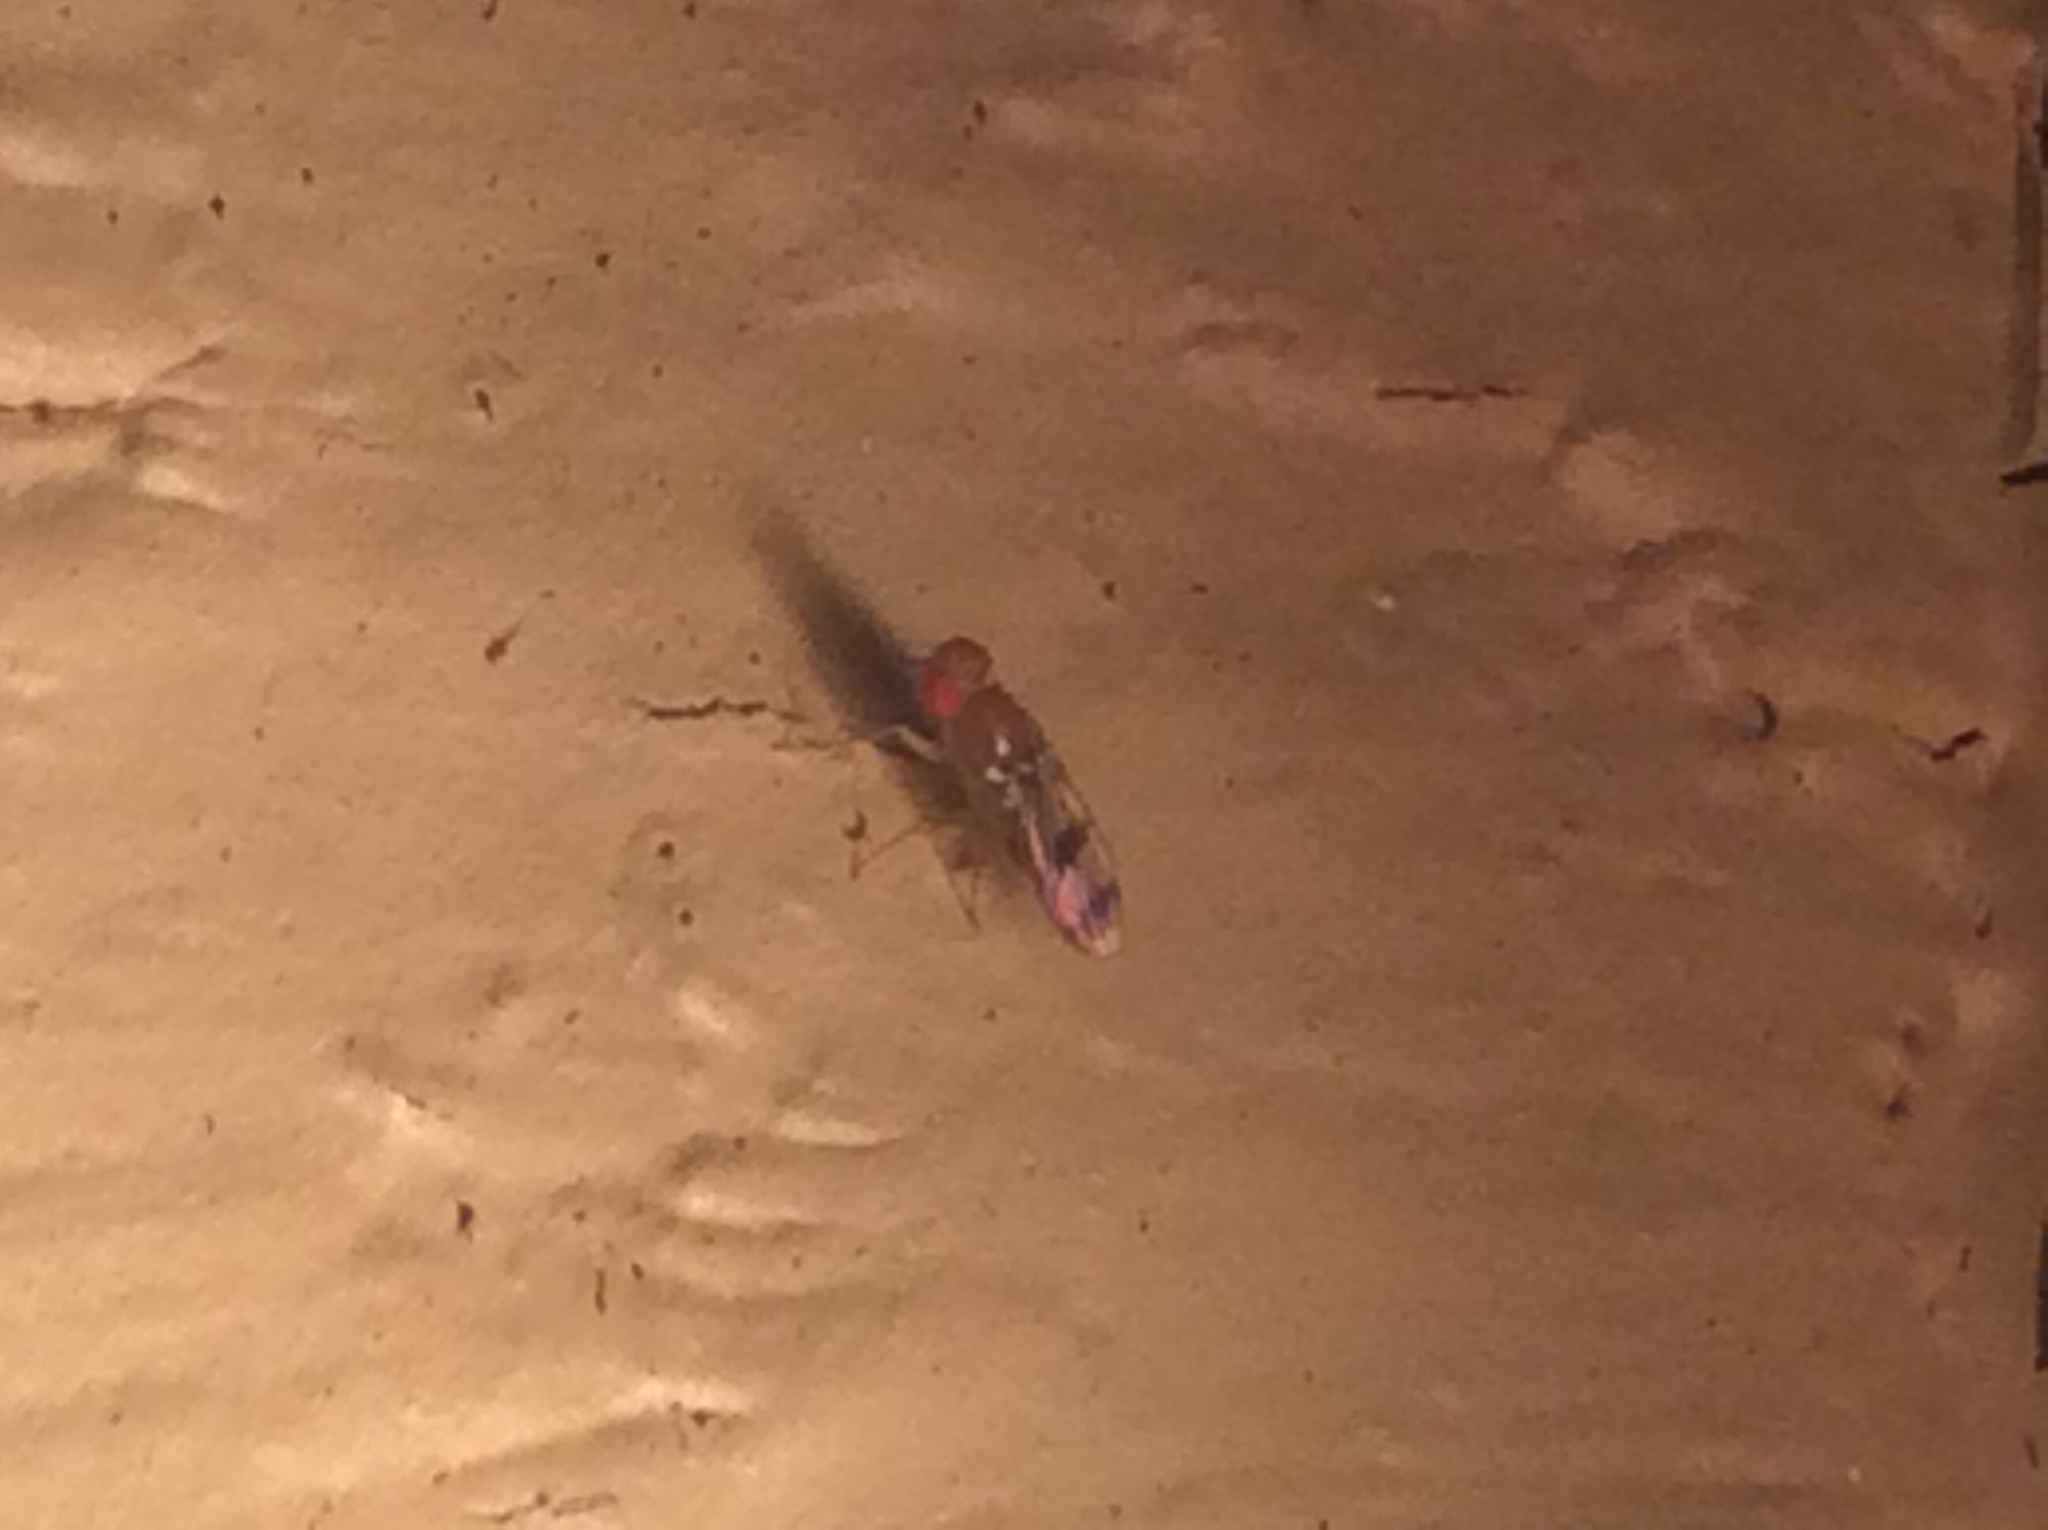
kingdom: Animalia
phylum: Arthropoda
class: Insecta
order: Diptera
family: Drosophilidae
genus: Chymomyza
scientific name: Chymomyza amoena
